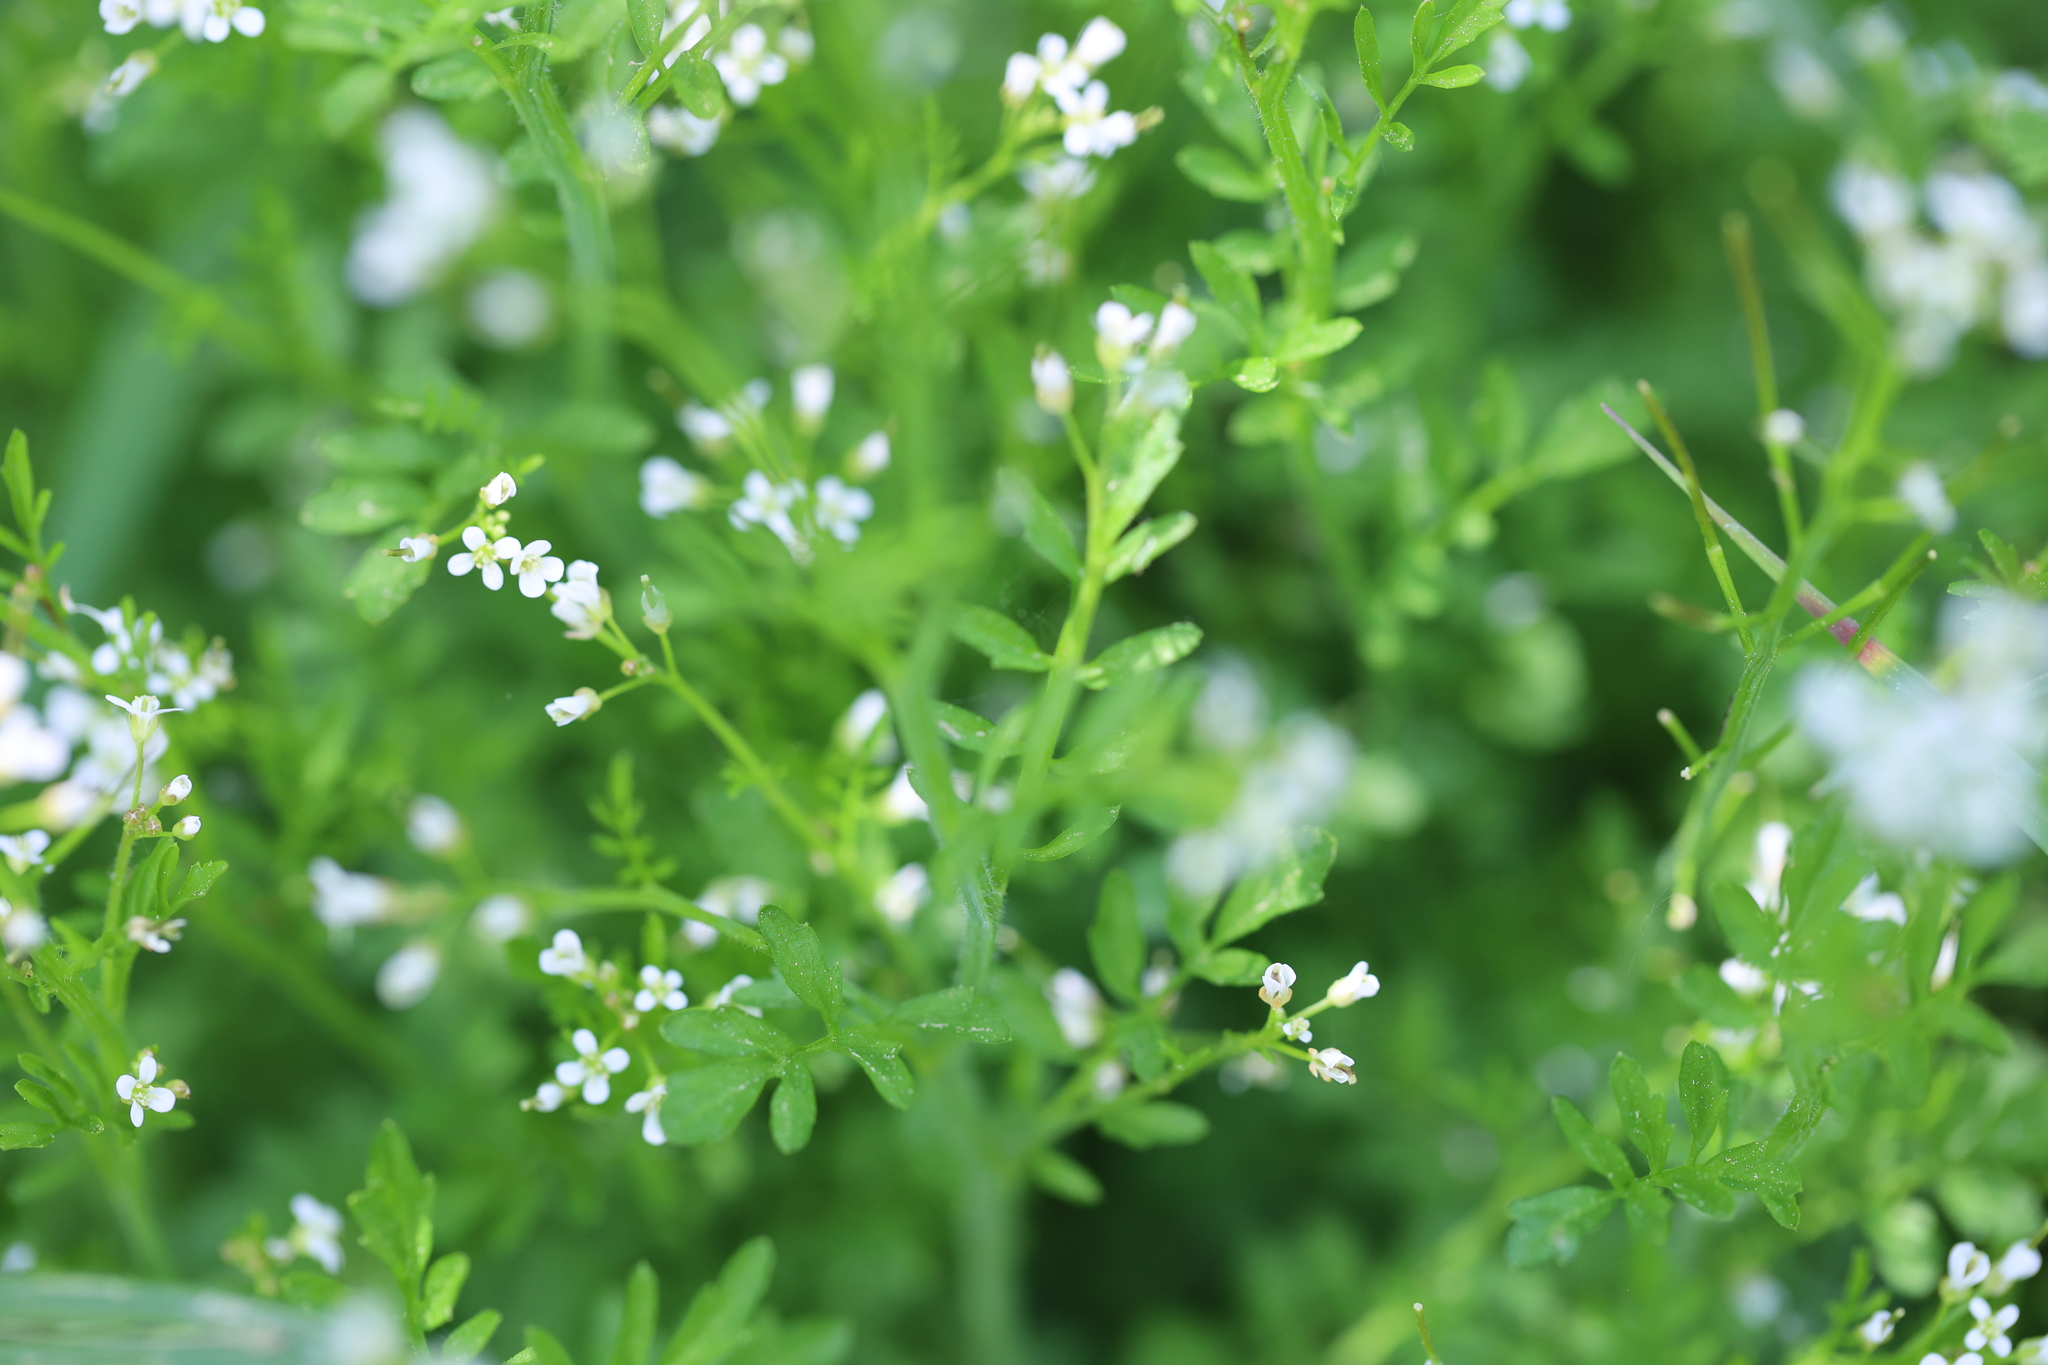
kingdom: Plantae
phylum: Tracheophyta
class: Magnoliopsida
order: Brassicales
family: Brassicaceae
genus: Cardamine
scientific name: Cardamine flexuosa
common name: Woodland bittercress
